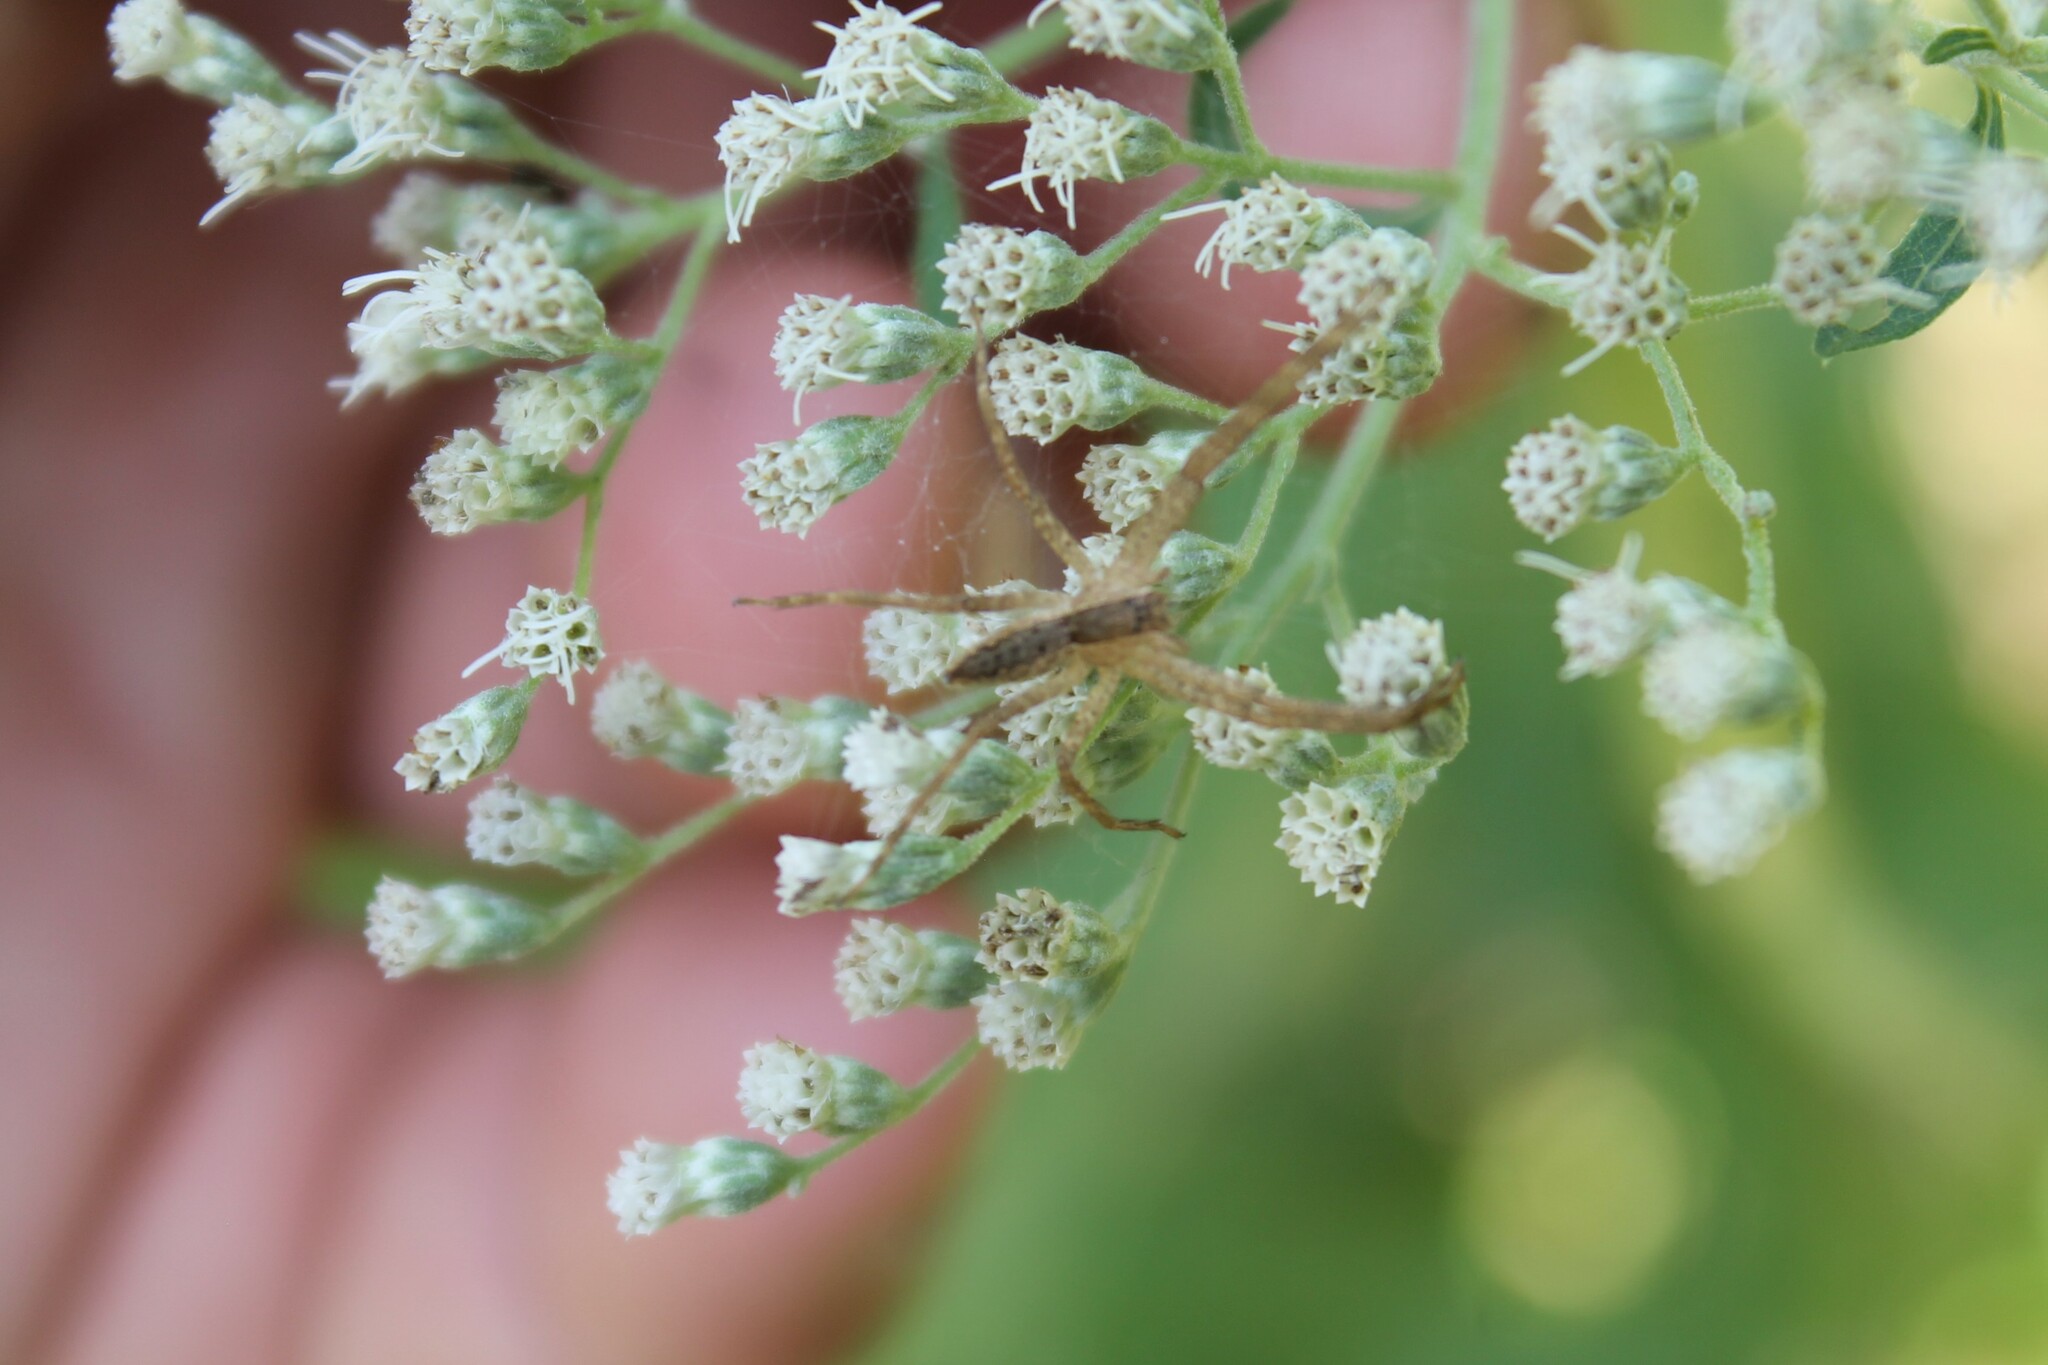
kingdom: Animalia
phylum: Arthropoda
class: Arachnida
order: Araneae
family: Pisauridae
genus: Pisaurina
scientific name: Pisaurina mira
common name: American nursery web spider
